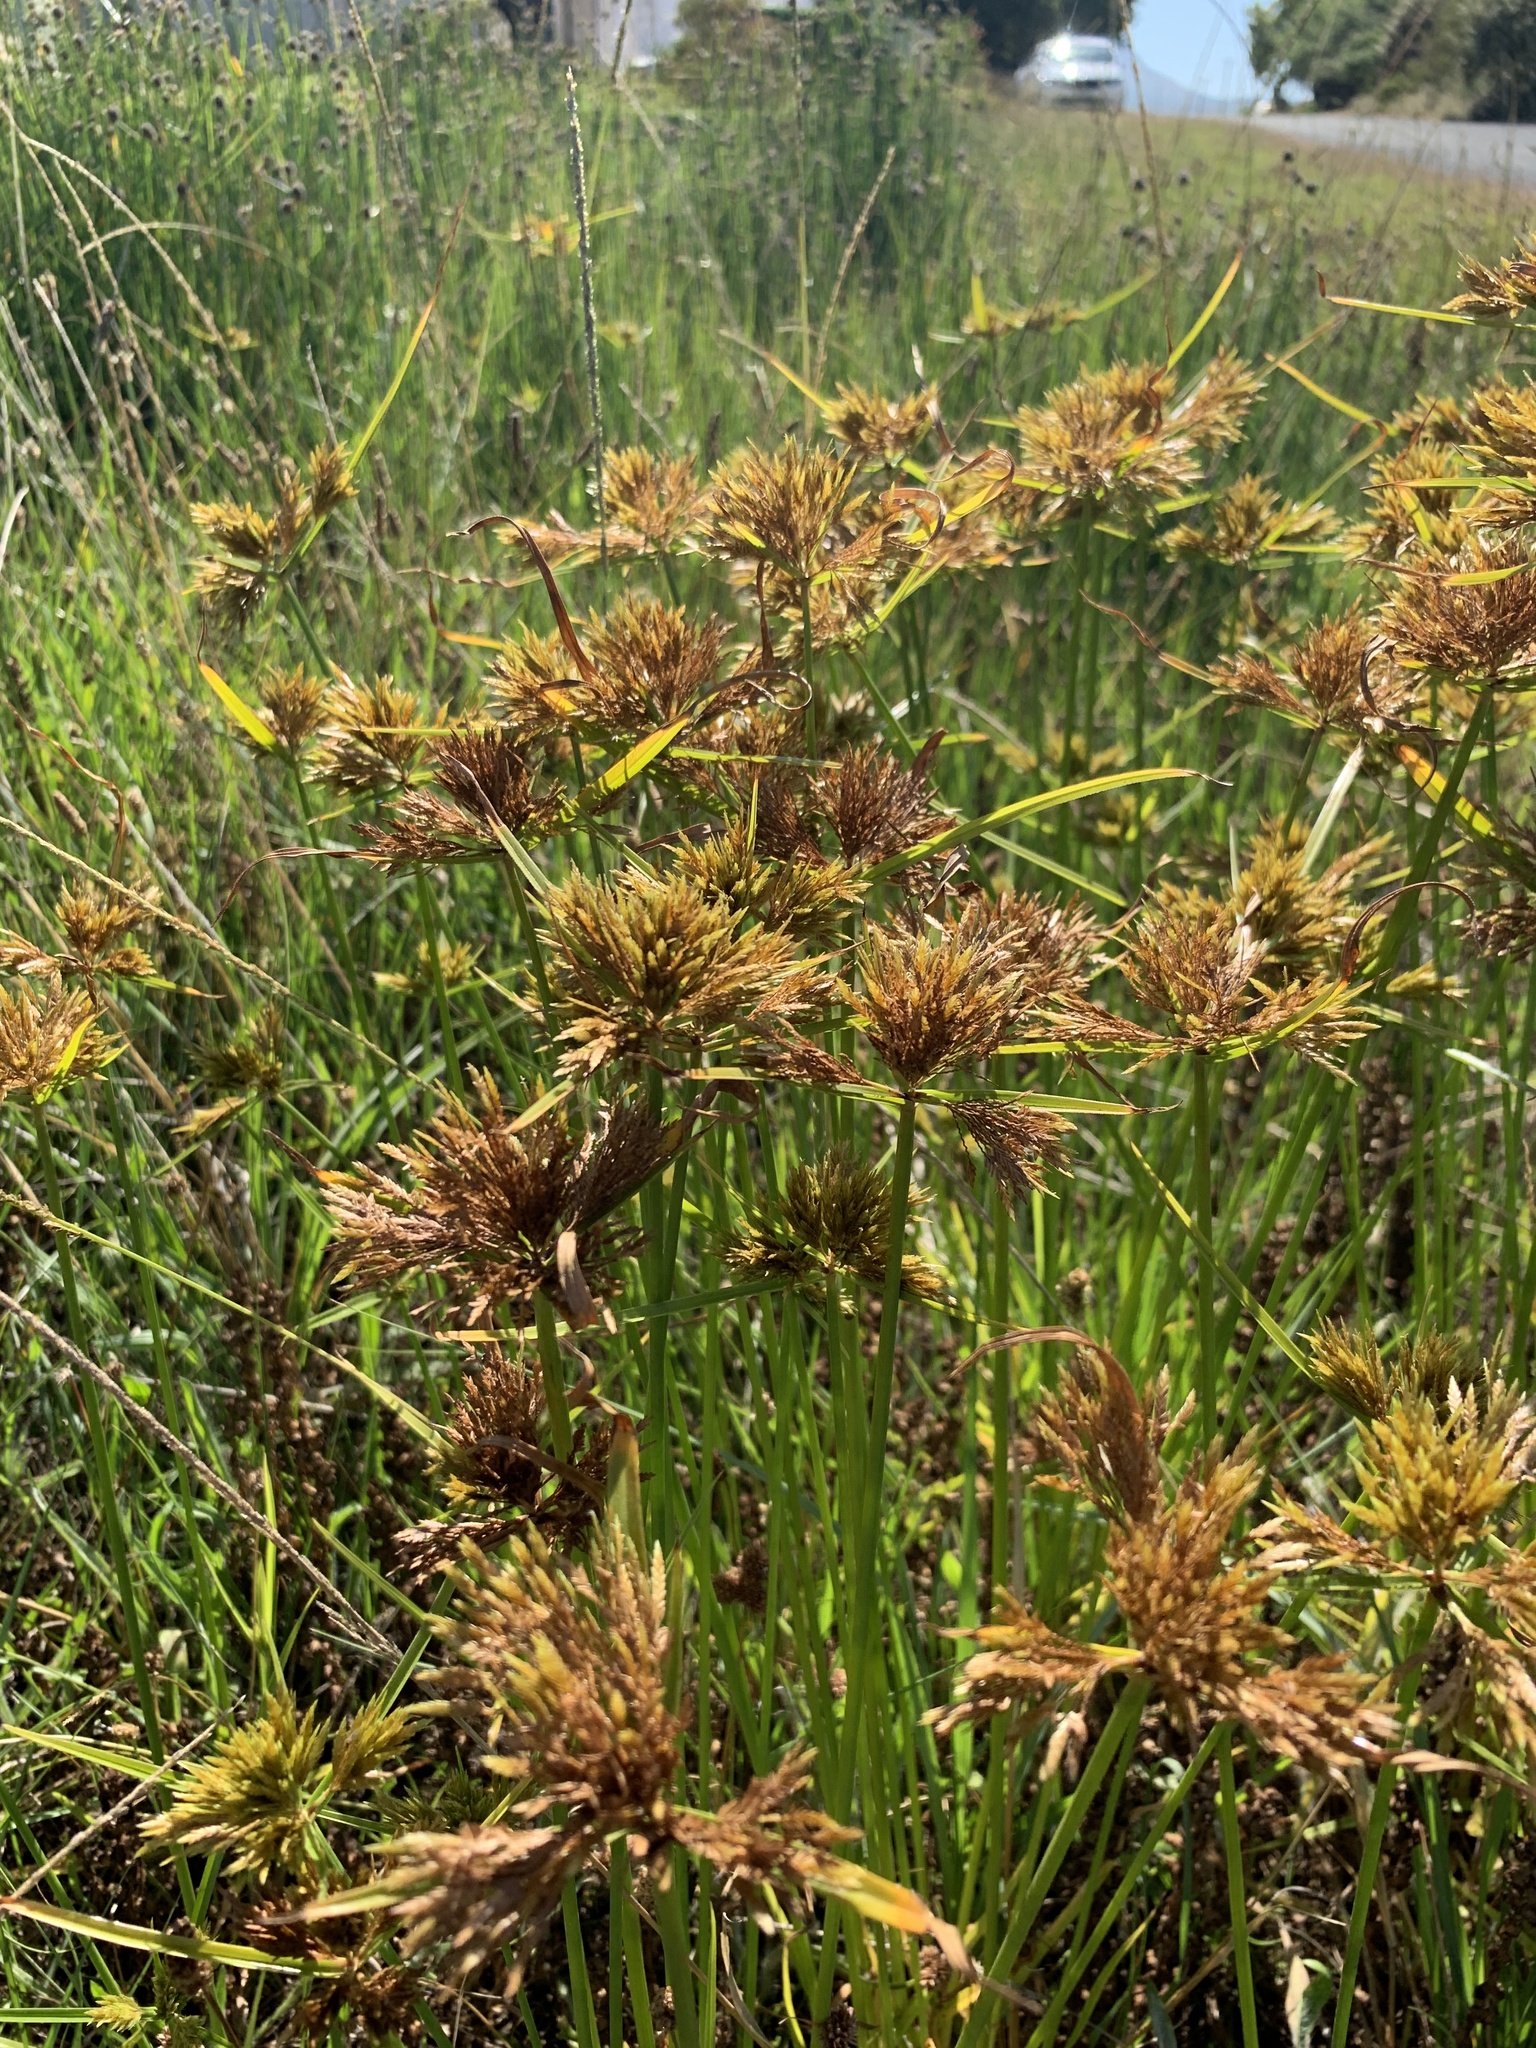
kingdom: Plantae
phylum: Tracheophyta
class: Liliopsida
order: Poales
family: Cyperaceae
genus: Cyperus
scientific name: Cyperus polystachyos
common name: Bunchy flat sedge
